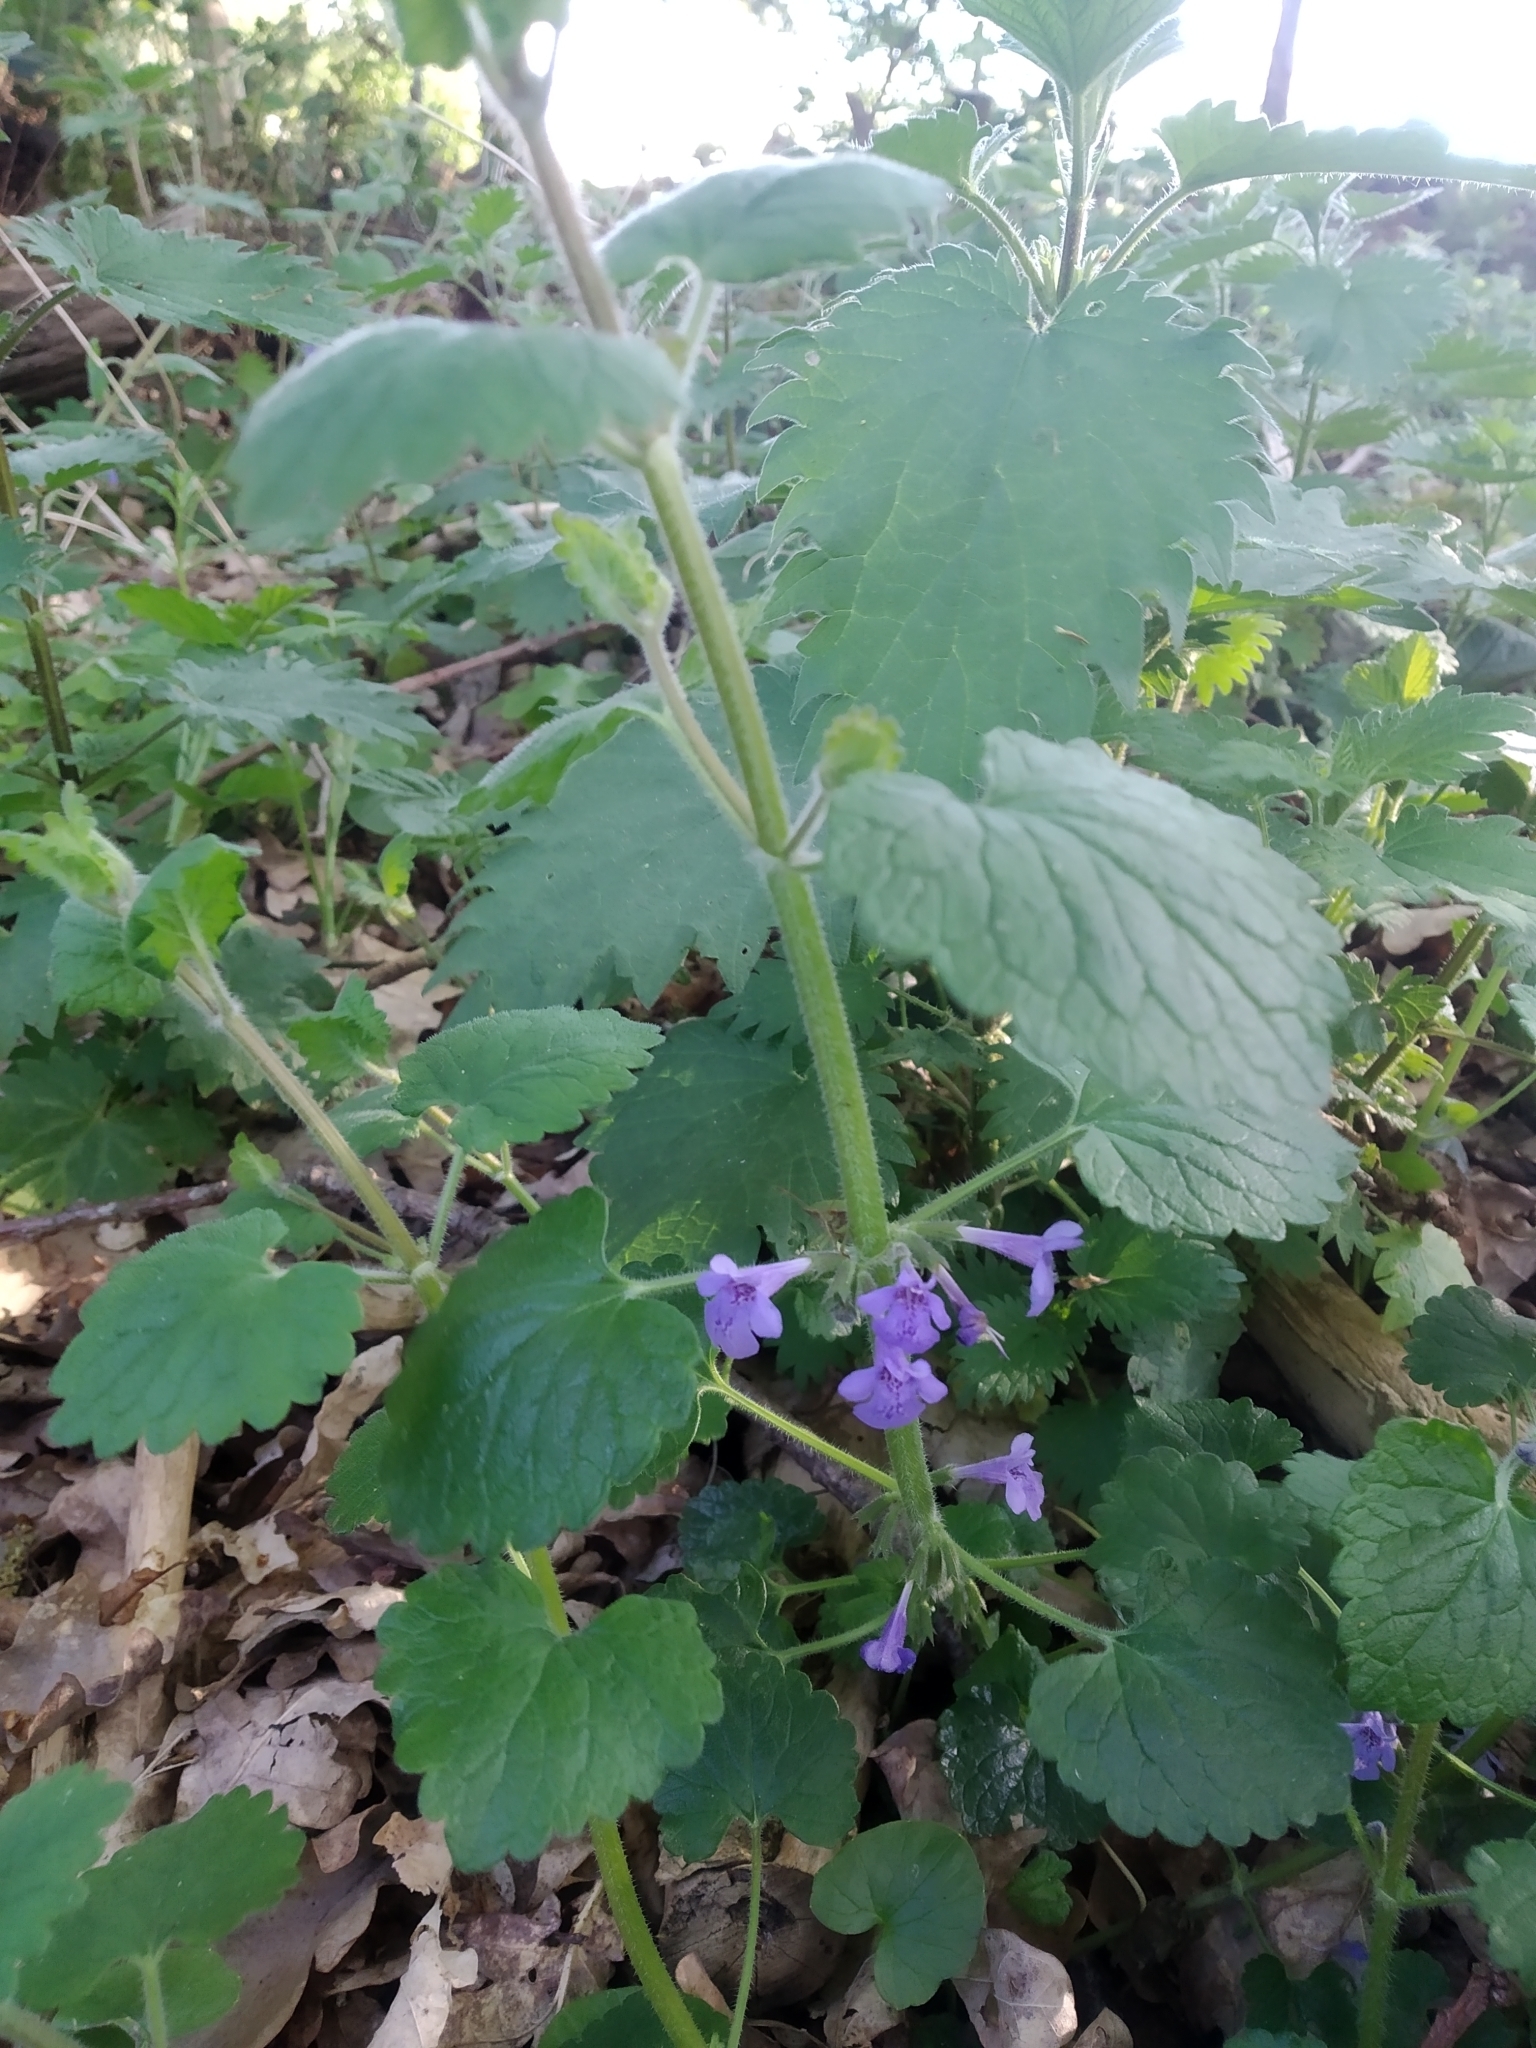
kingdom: Plantae
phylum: Tracheophyta
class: Magnoliopsida
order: Lamiales
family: Lamiaceae
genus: Glechoma
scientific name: Glechoma hederacea
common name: Ground ivy
